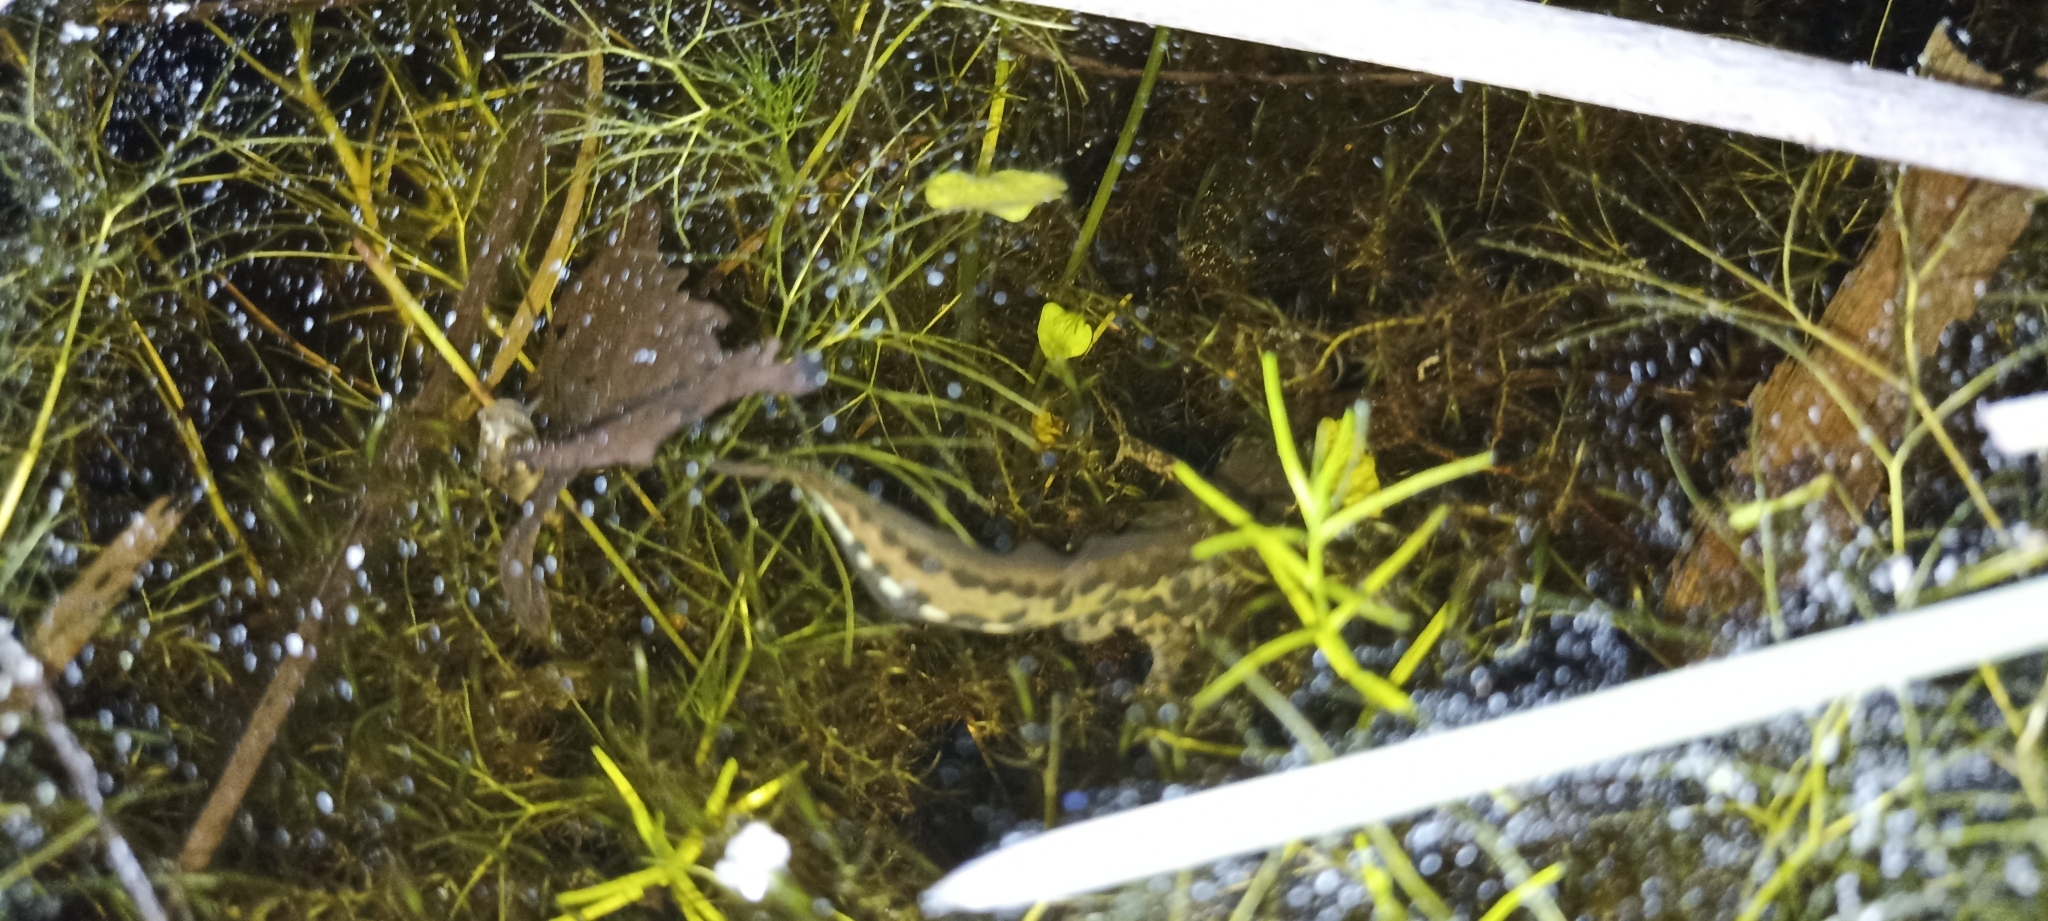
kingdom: Animalia
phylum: Chordata
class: Amphibia
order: Caudata
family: Salamandridae
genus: Lissotriton
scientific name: Lissotriton helveticus
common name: Palmate newt
